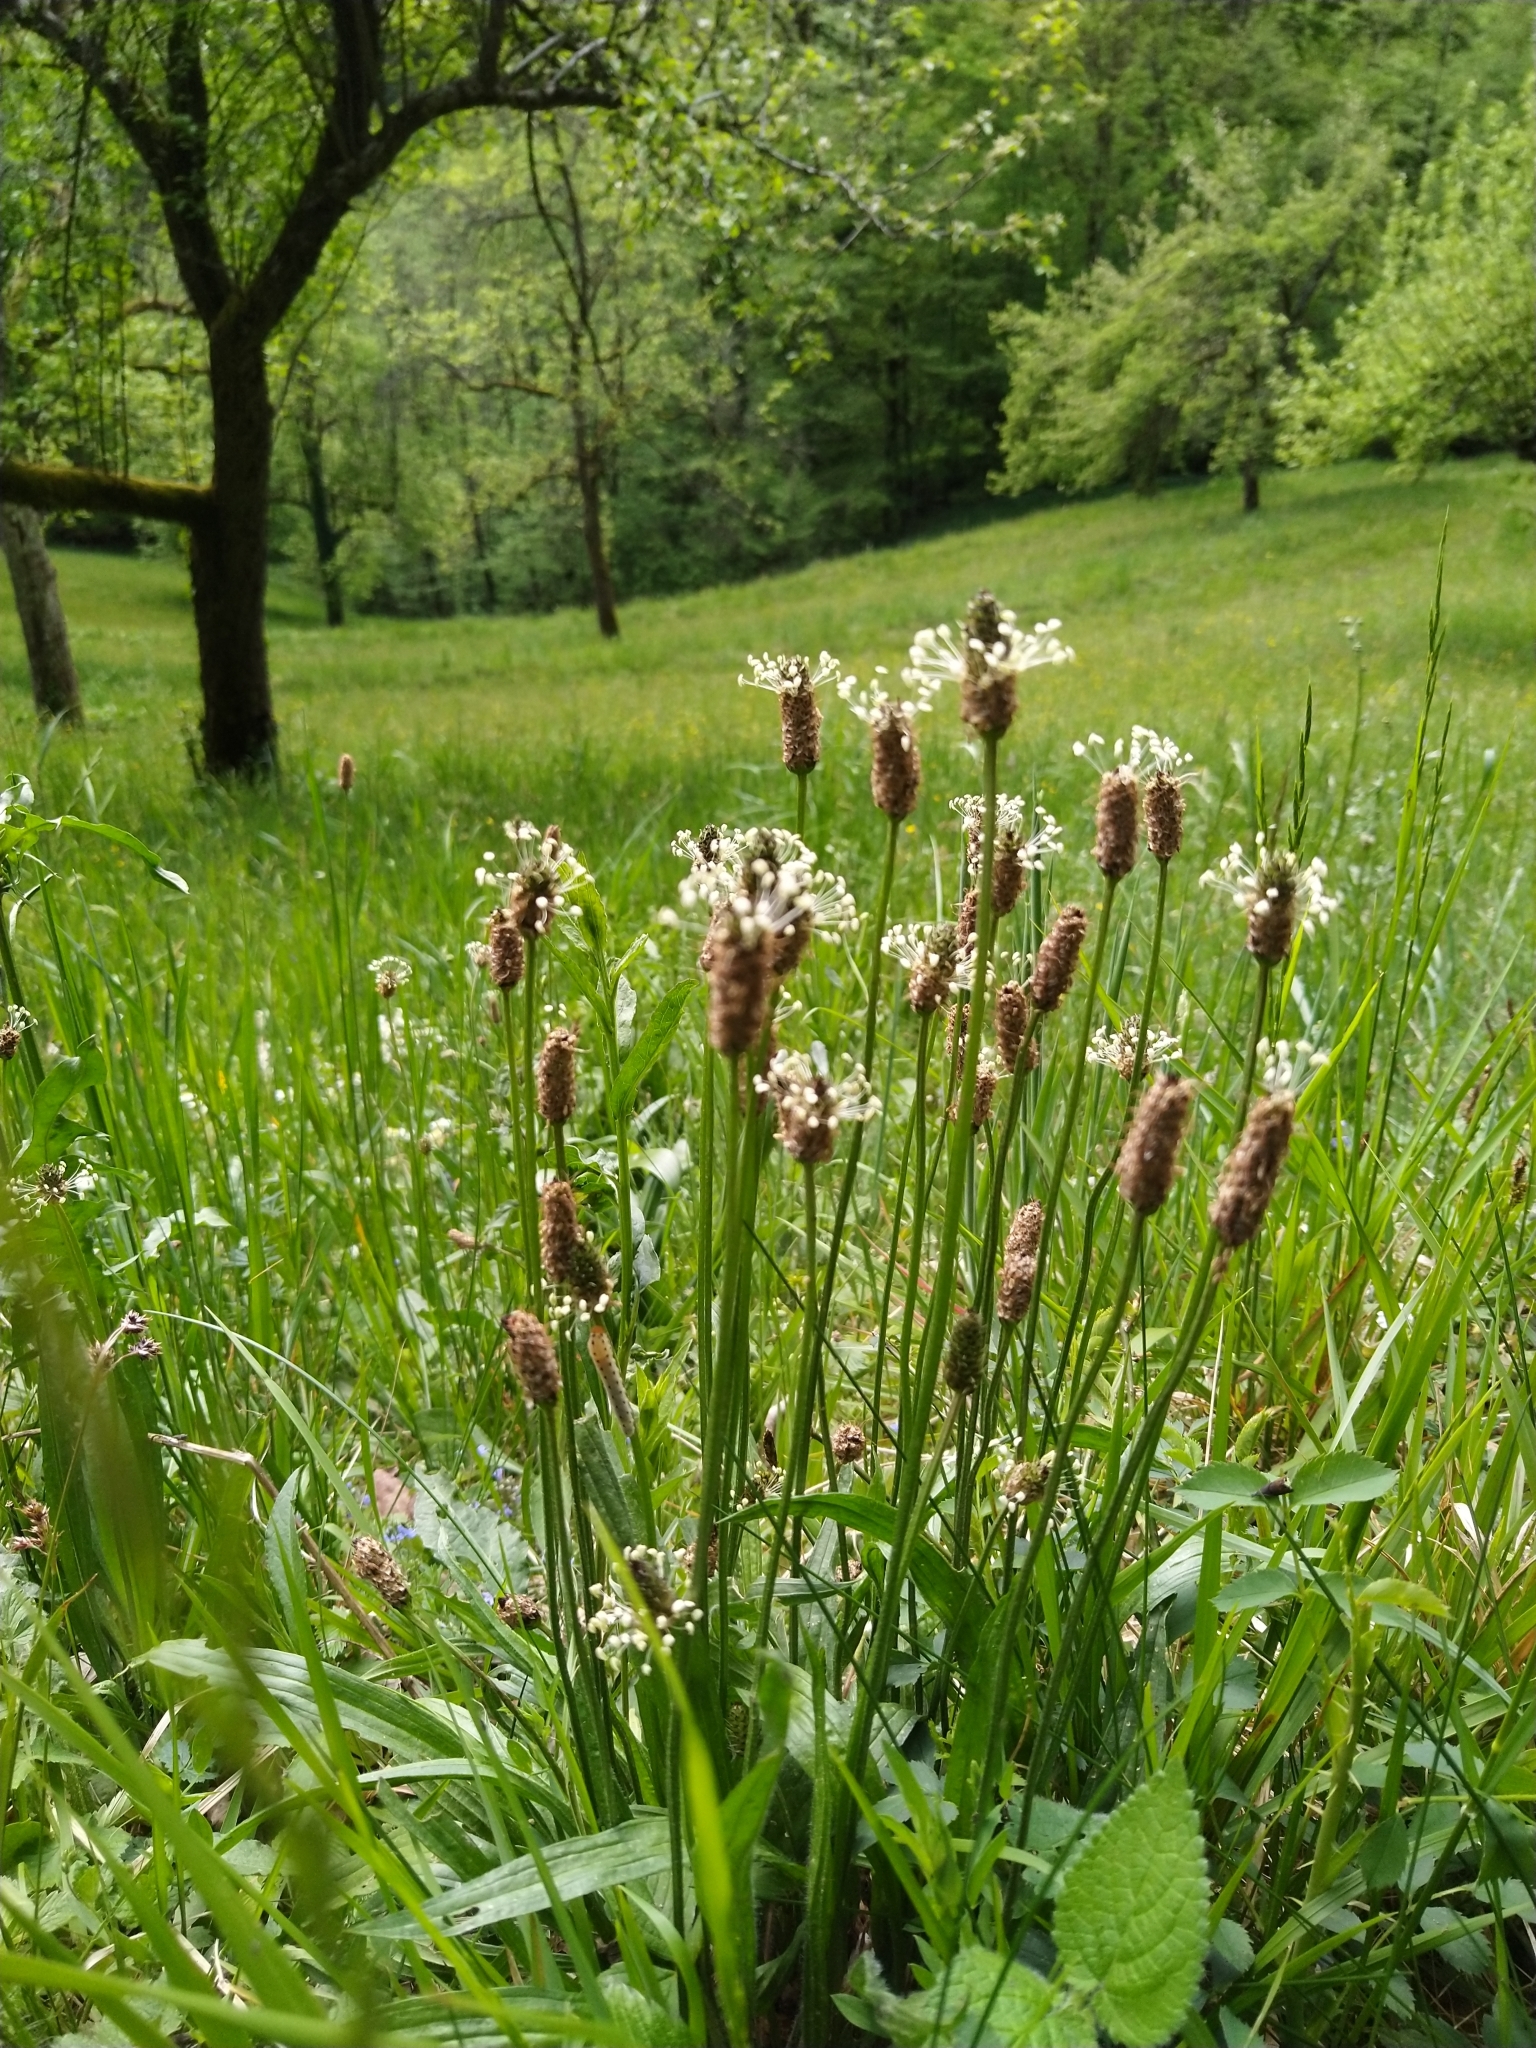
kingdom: Plantae
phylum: Tracheophyta
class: Magnoliopsida
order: Lamiales
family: Plantaginaceae
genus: Plantago
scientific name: Plantago lanceolata
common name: Ribwort plantain
